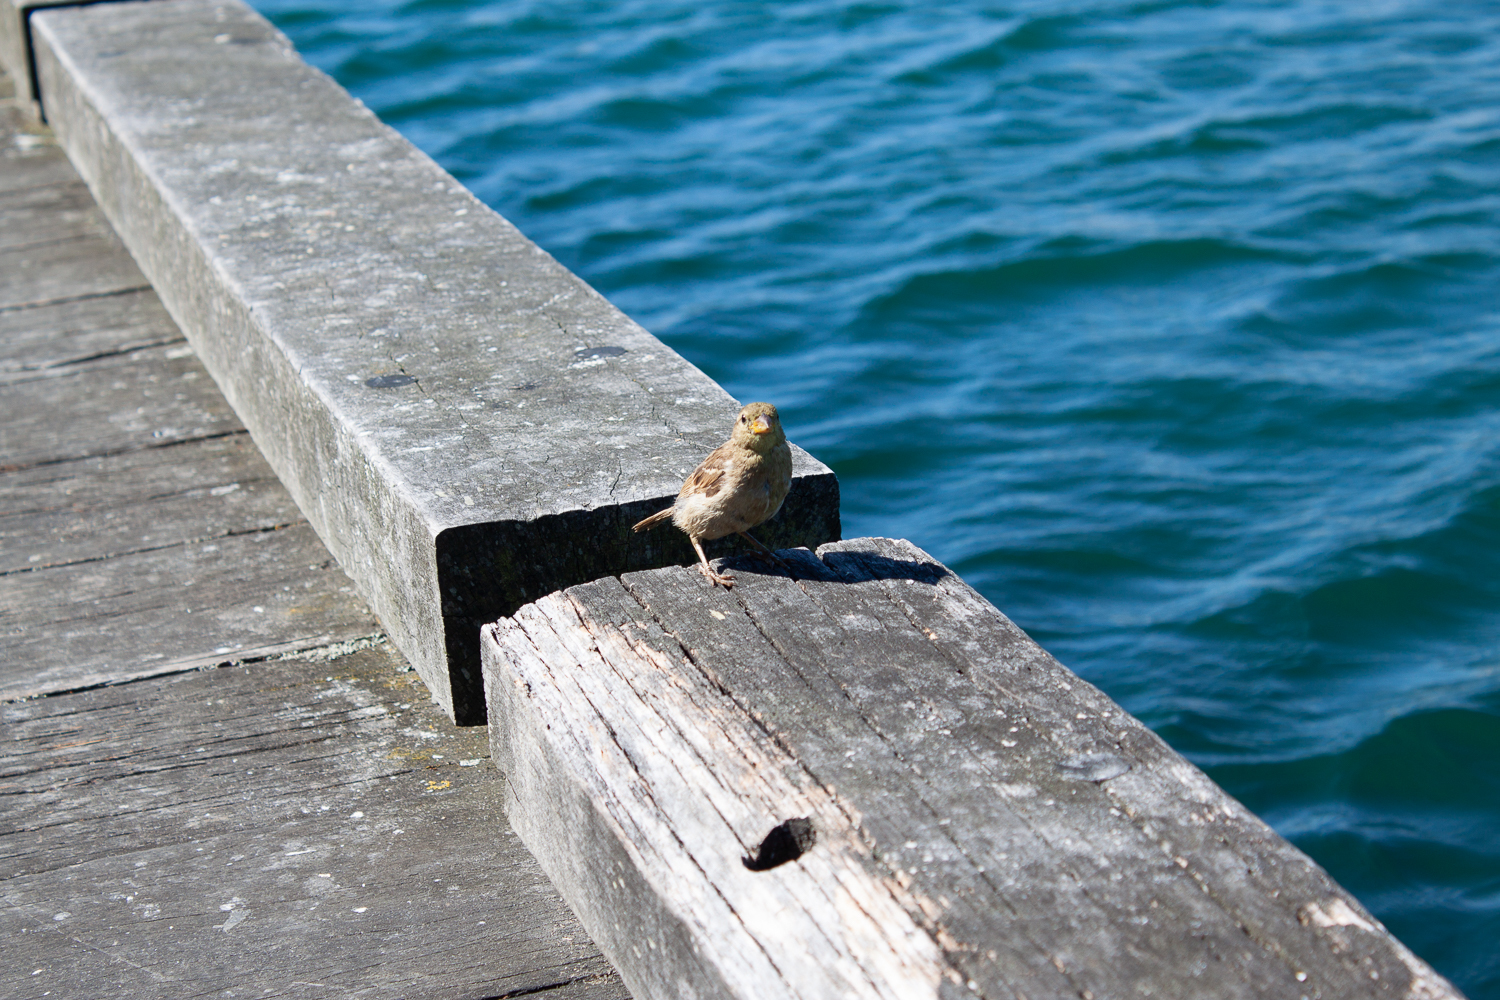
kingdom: Animalia
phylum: Chordata
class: Aves
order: Passeriformes
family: Passeridae
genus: Passer
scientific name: Passer domesticus
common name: House sparrow
